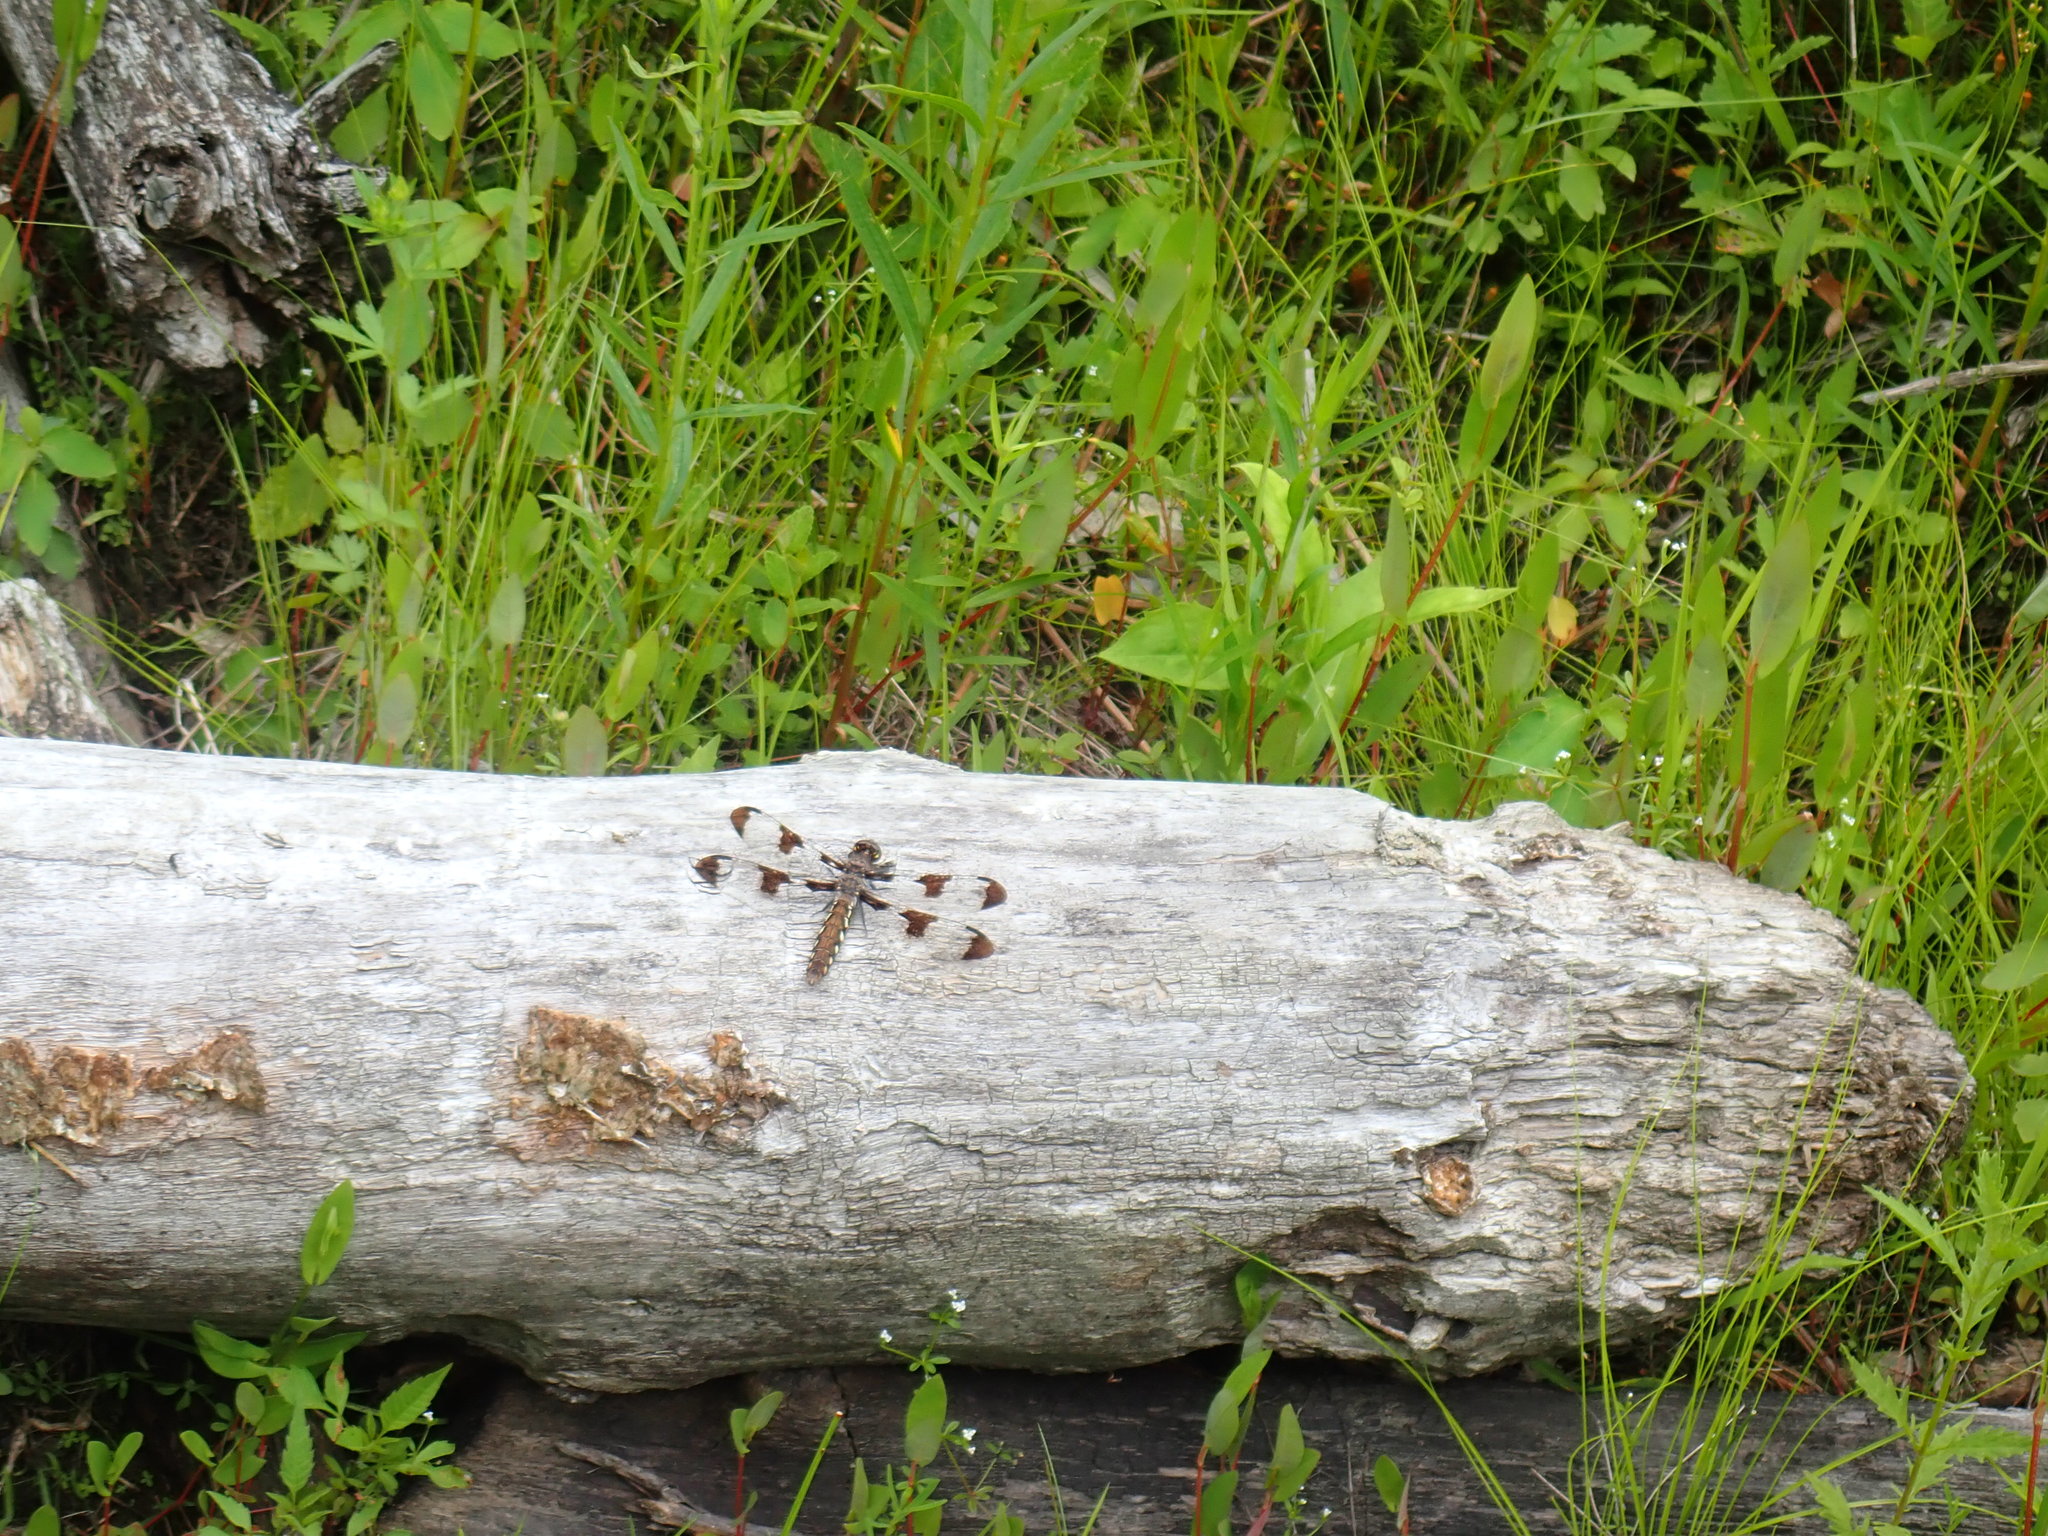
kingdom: Animalia
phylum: Arthropoda
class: Insecta
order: Odonata
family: Libellulidae
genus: Plathemis
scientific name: Plathemis lydia
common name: Common whitetail
